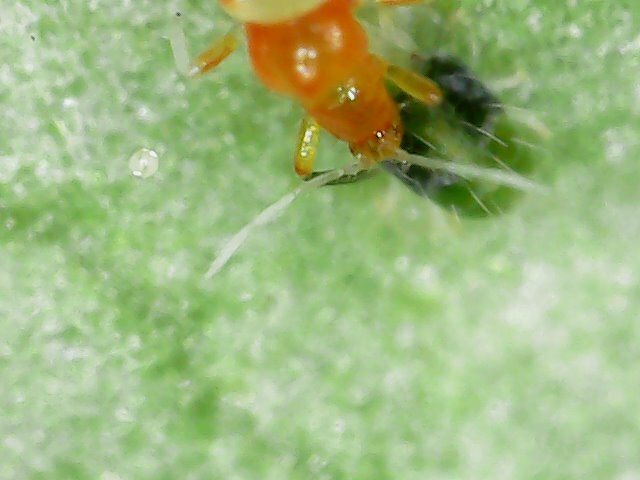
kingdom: Animalia
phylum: Arthropoda
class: Insecta
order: Thysanoptera
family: Aeolothripidae
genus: Franklinothrips
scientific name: Franklinothrips vespiformis
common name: Banded thrip
